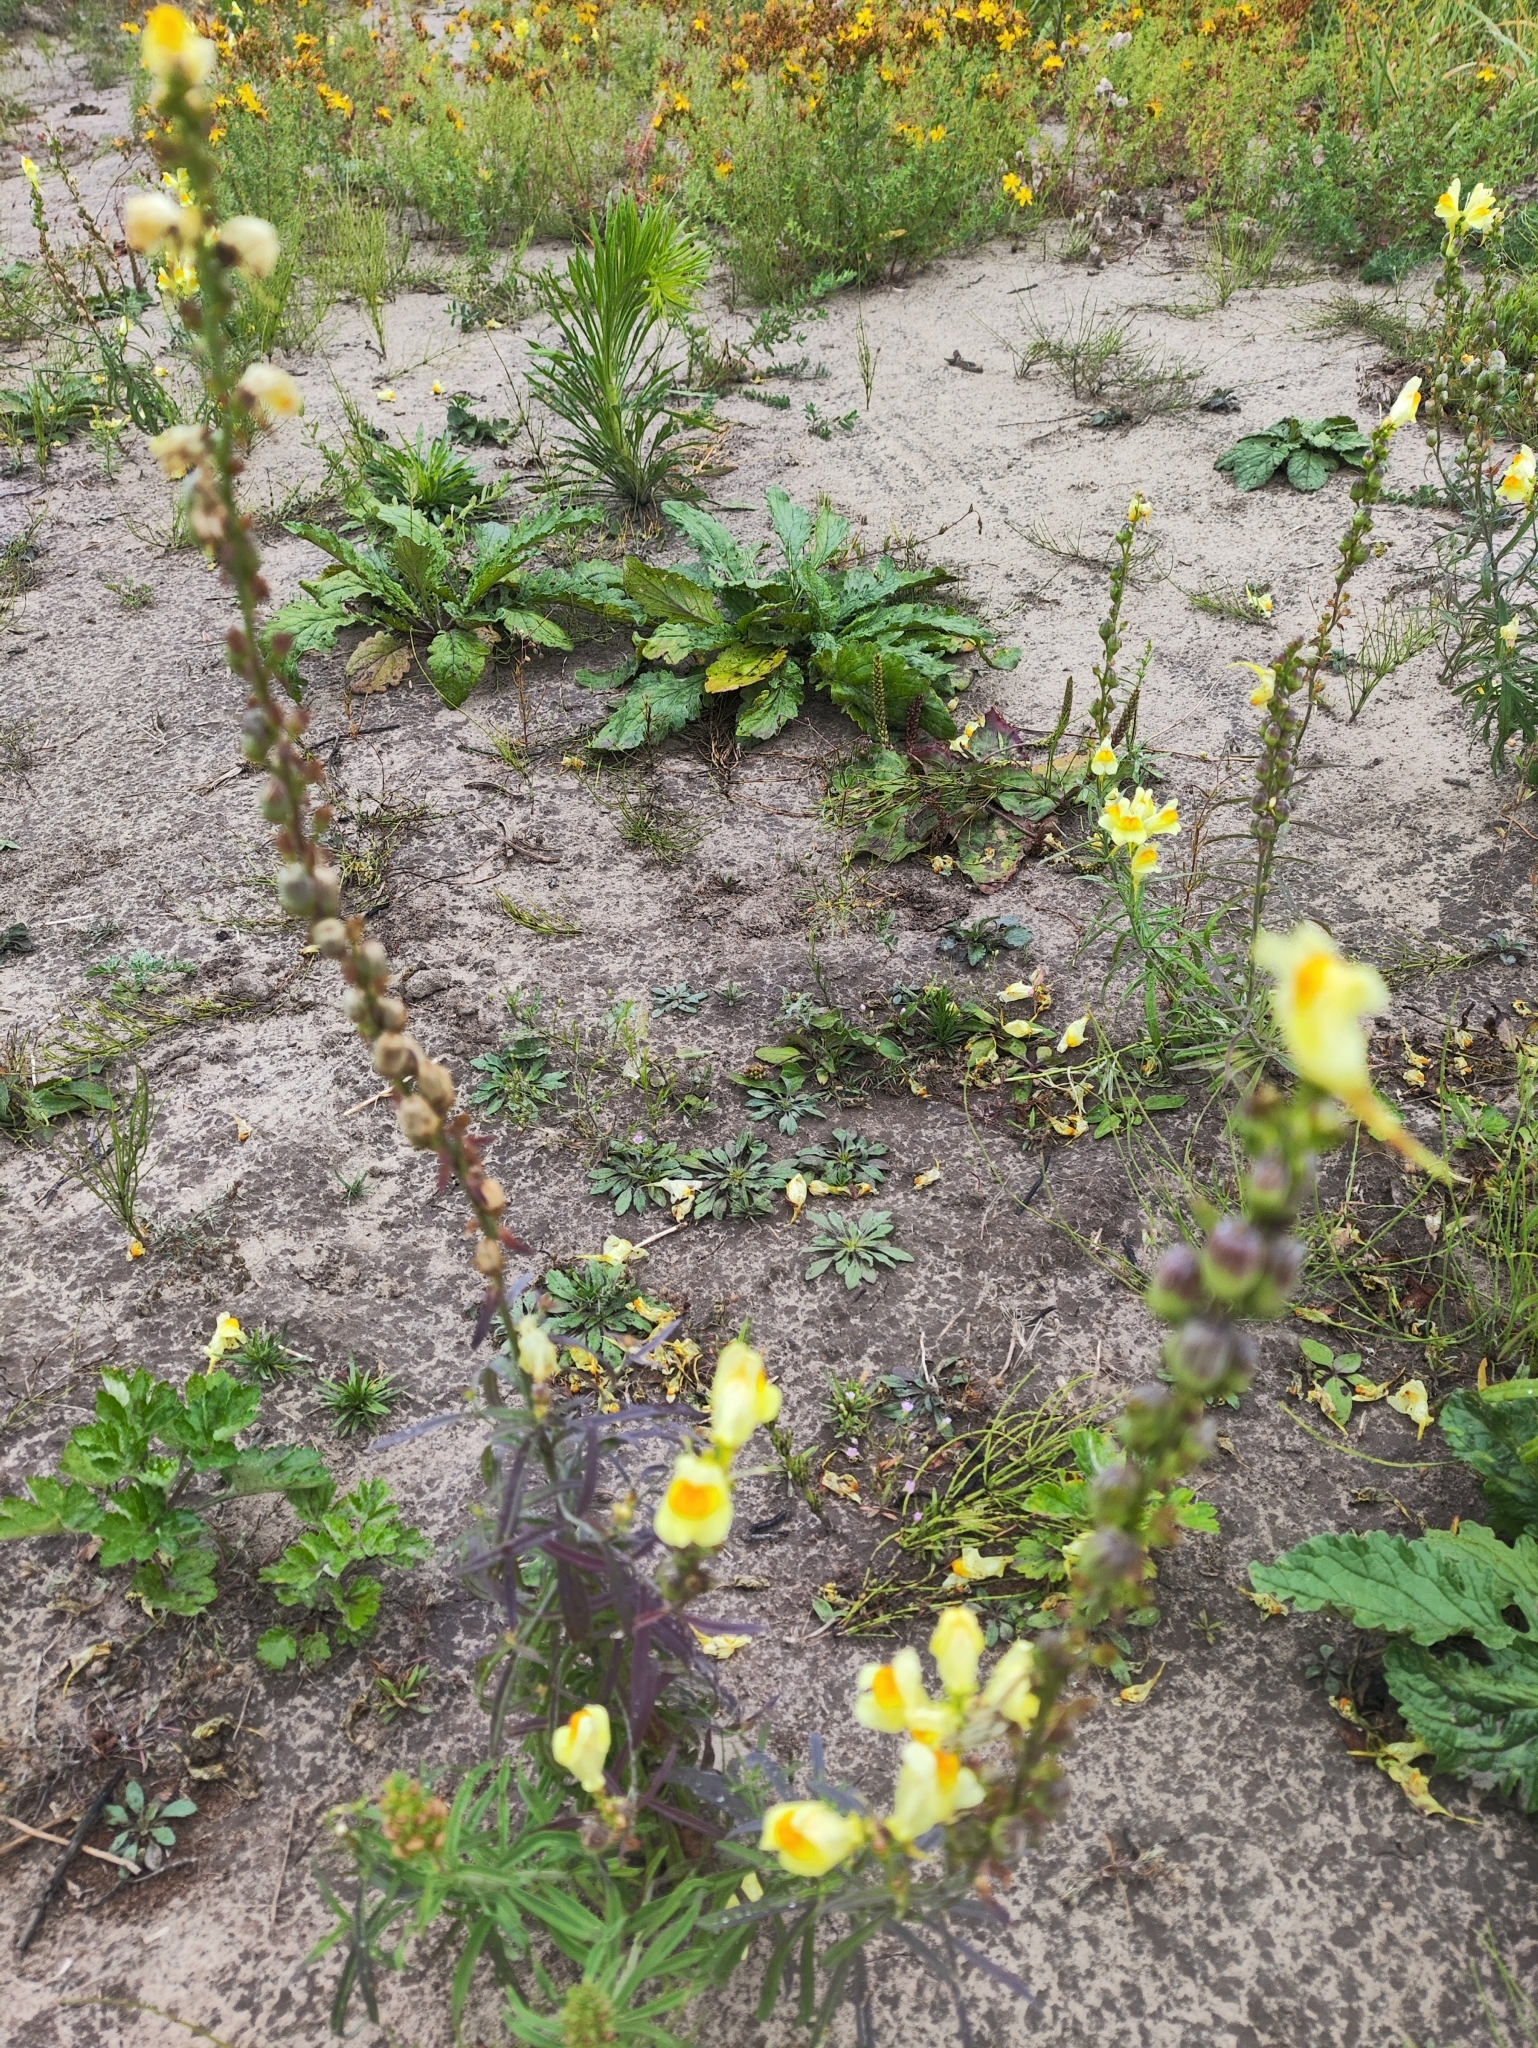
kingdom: Plantae
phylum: Tracheophyta
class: Magnoliopsida
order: Lamiales
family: Plantaginaceae
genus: Linaria
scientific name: Linaria vulgaris
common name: Butter and eggs
